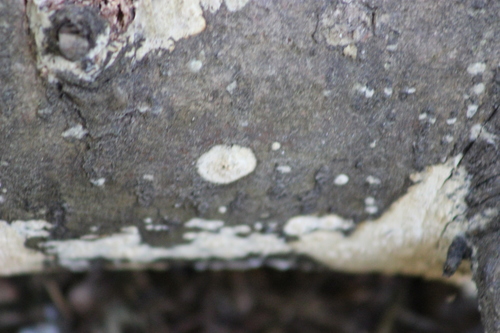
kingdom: Fungi
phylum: Basidiomycota
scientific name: Basidiomycota
